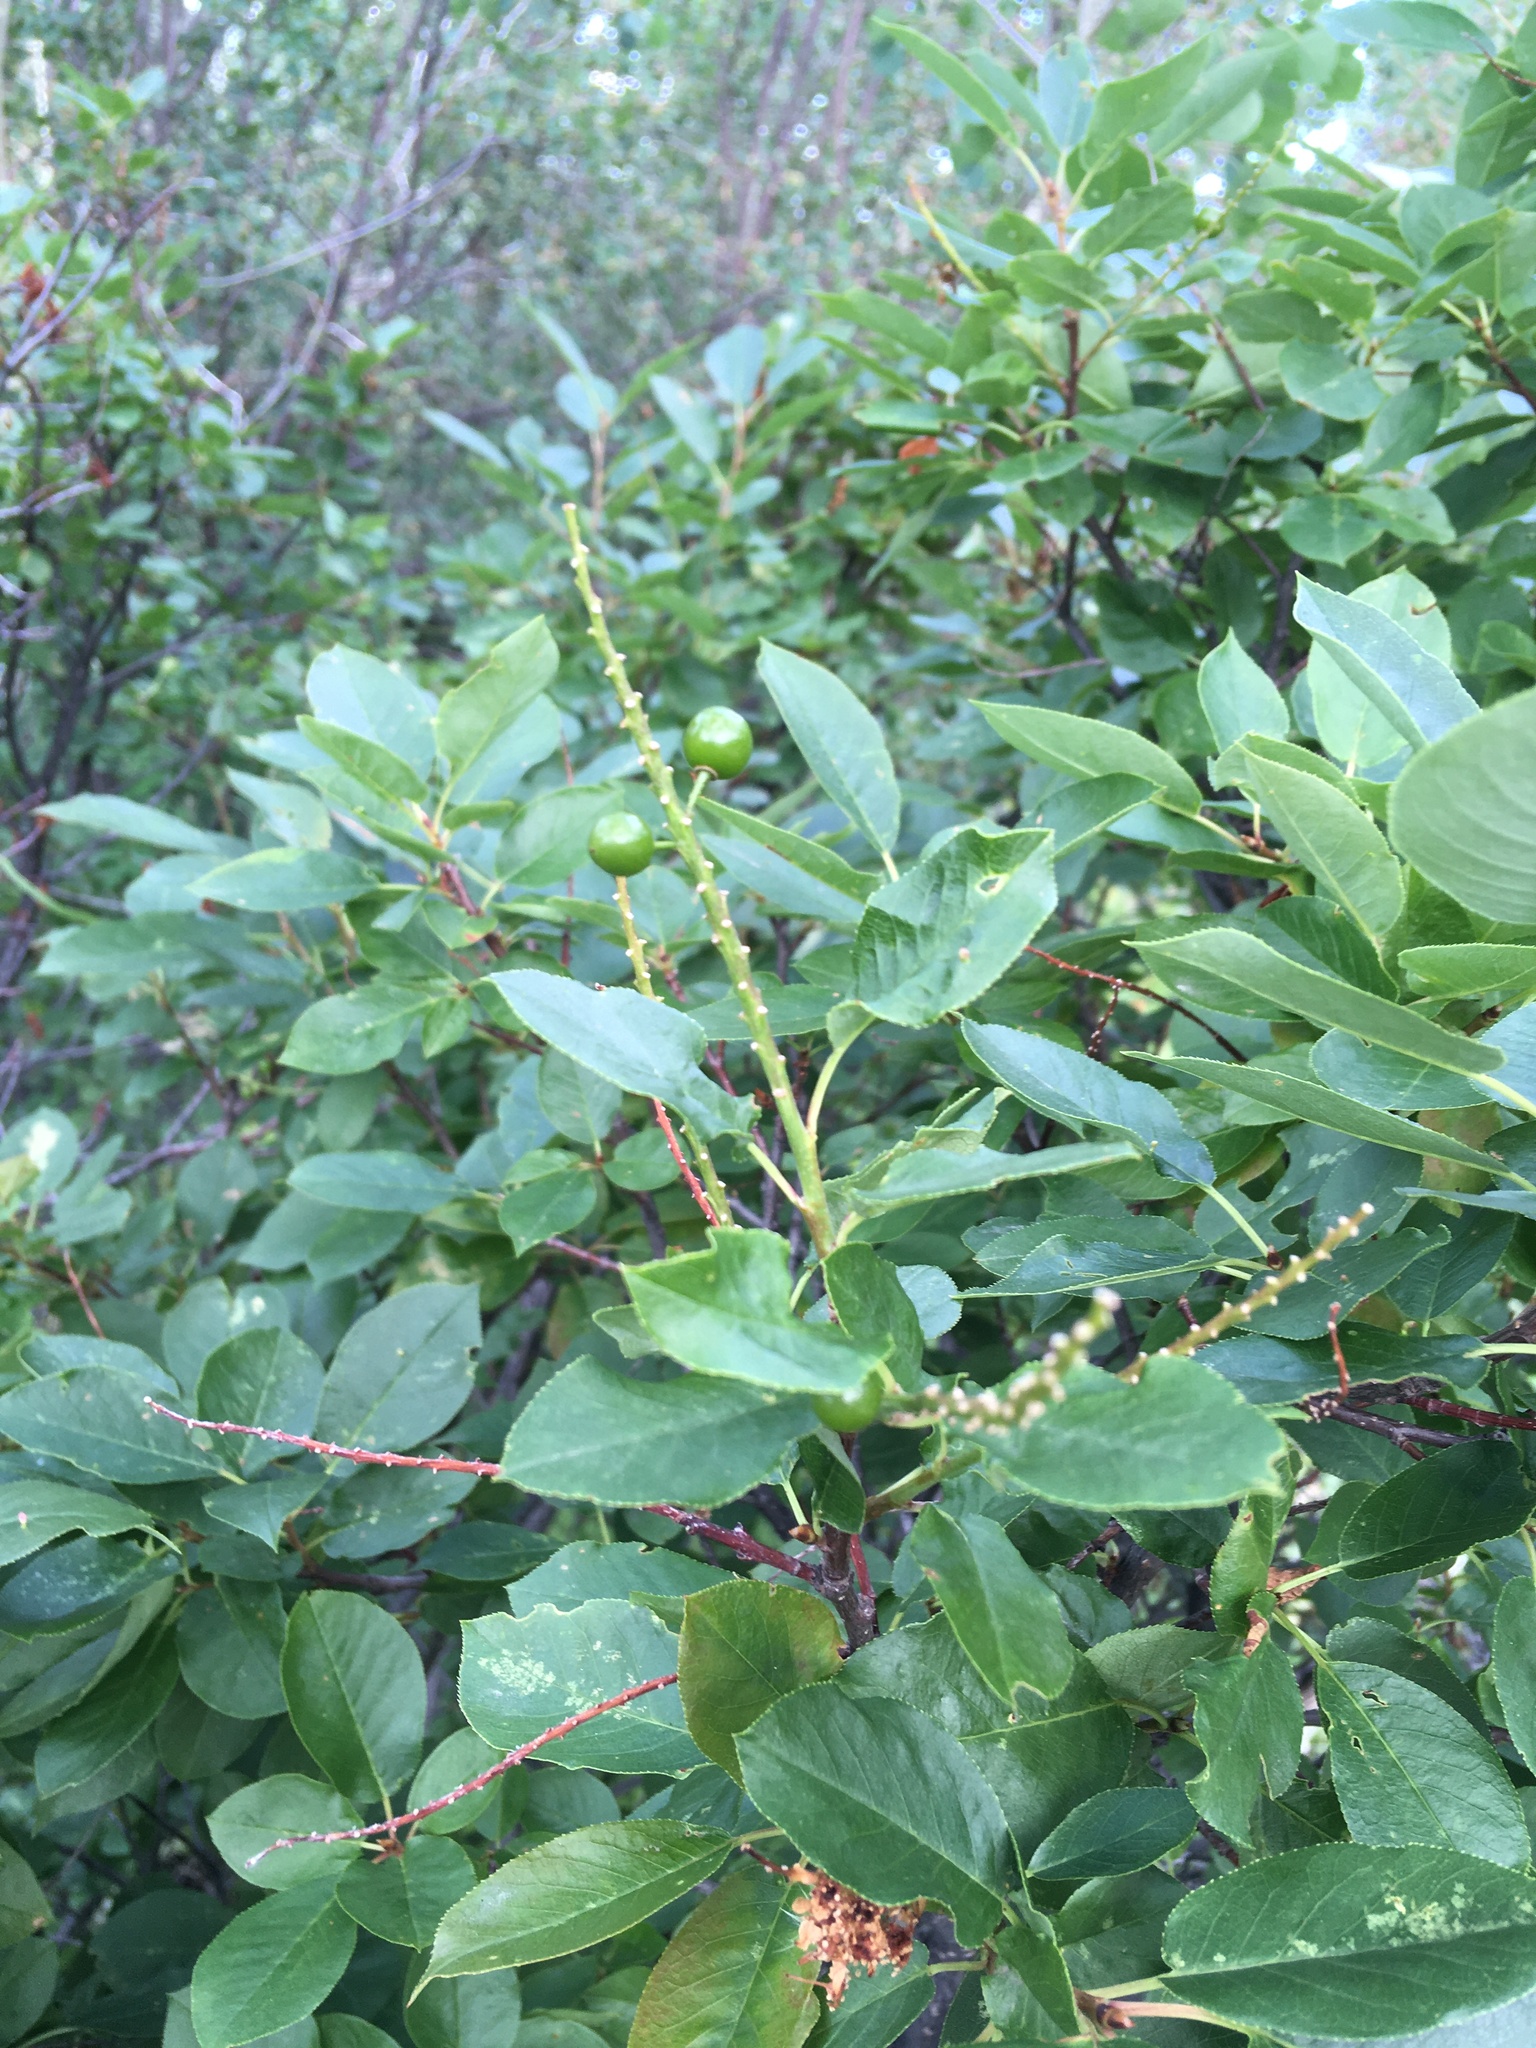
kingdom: Plantae
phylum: Tracheophyta
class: Magnoliopsida
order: Rosales
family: Rosaceae
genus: Prunus
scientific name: Prunus virginiana
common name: Chokecherry
